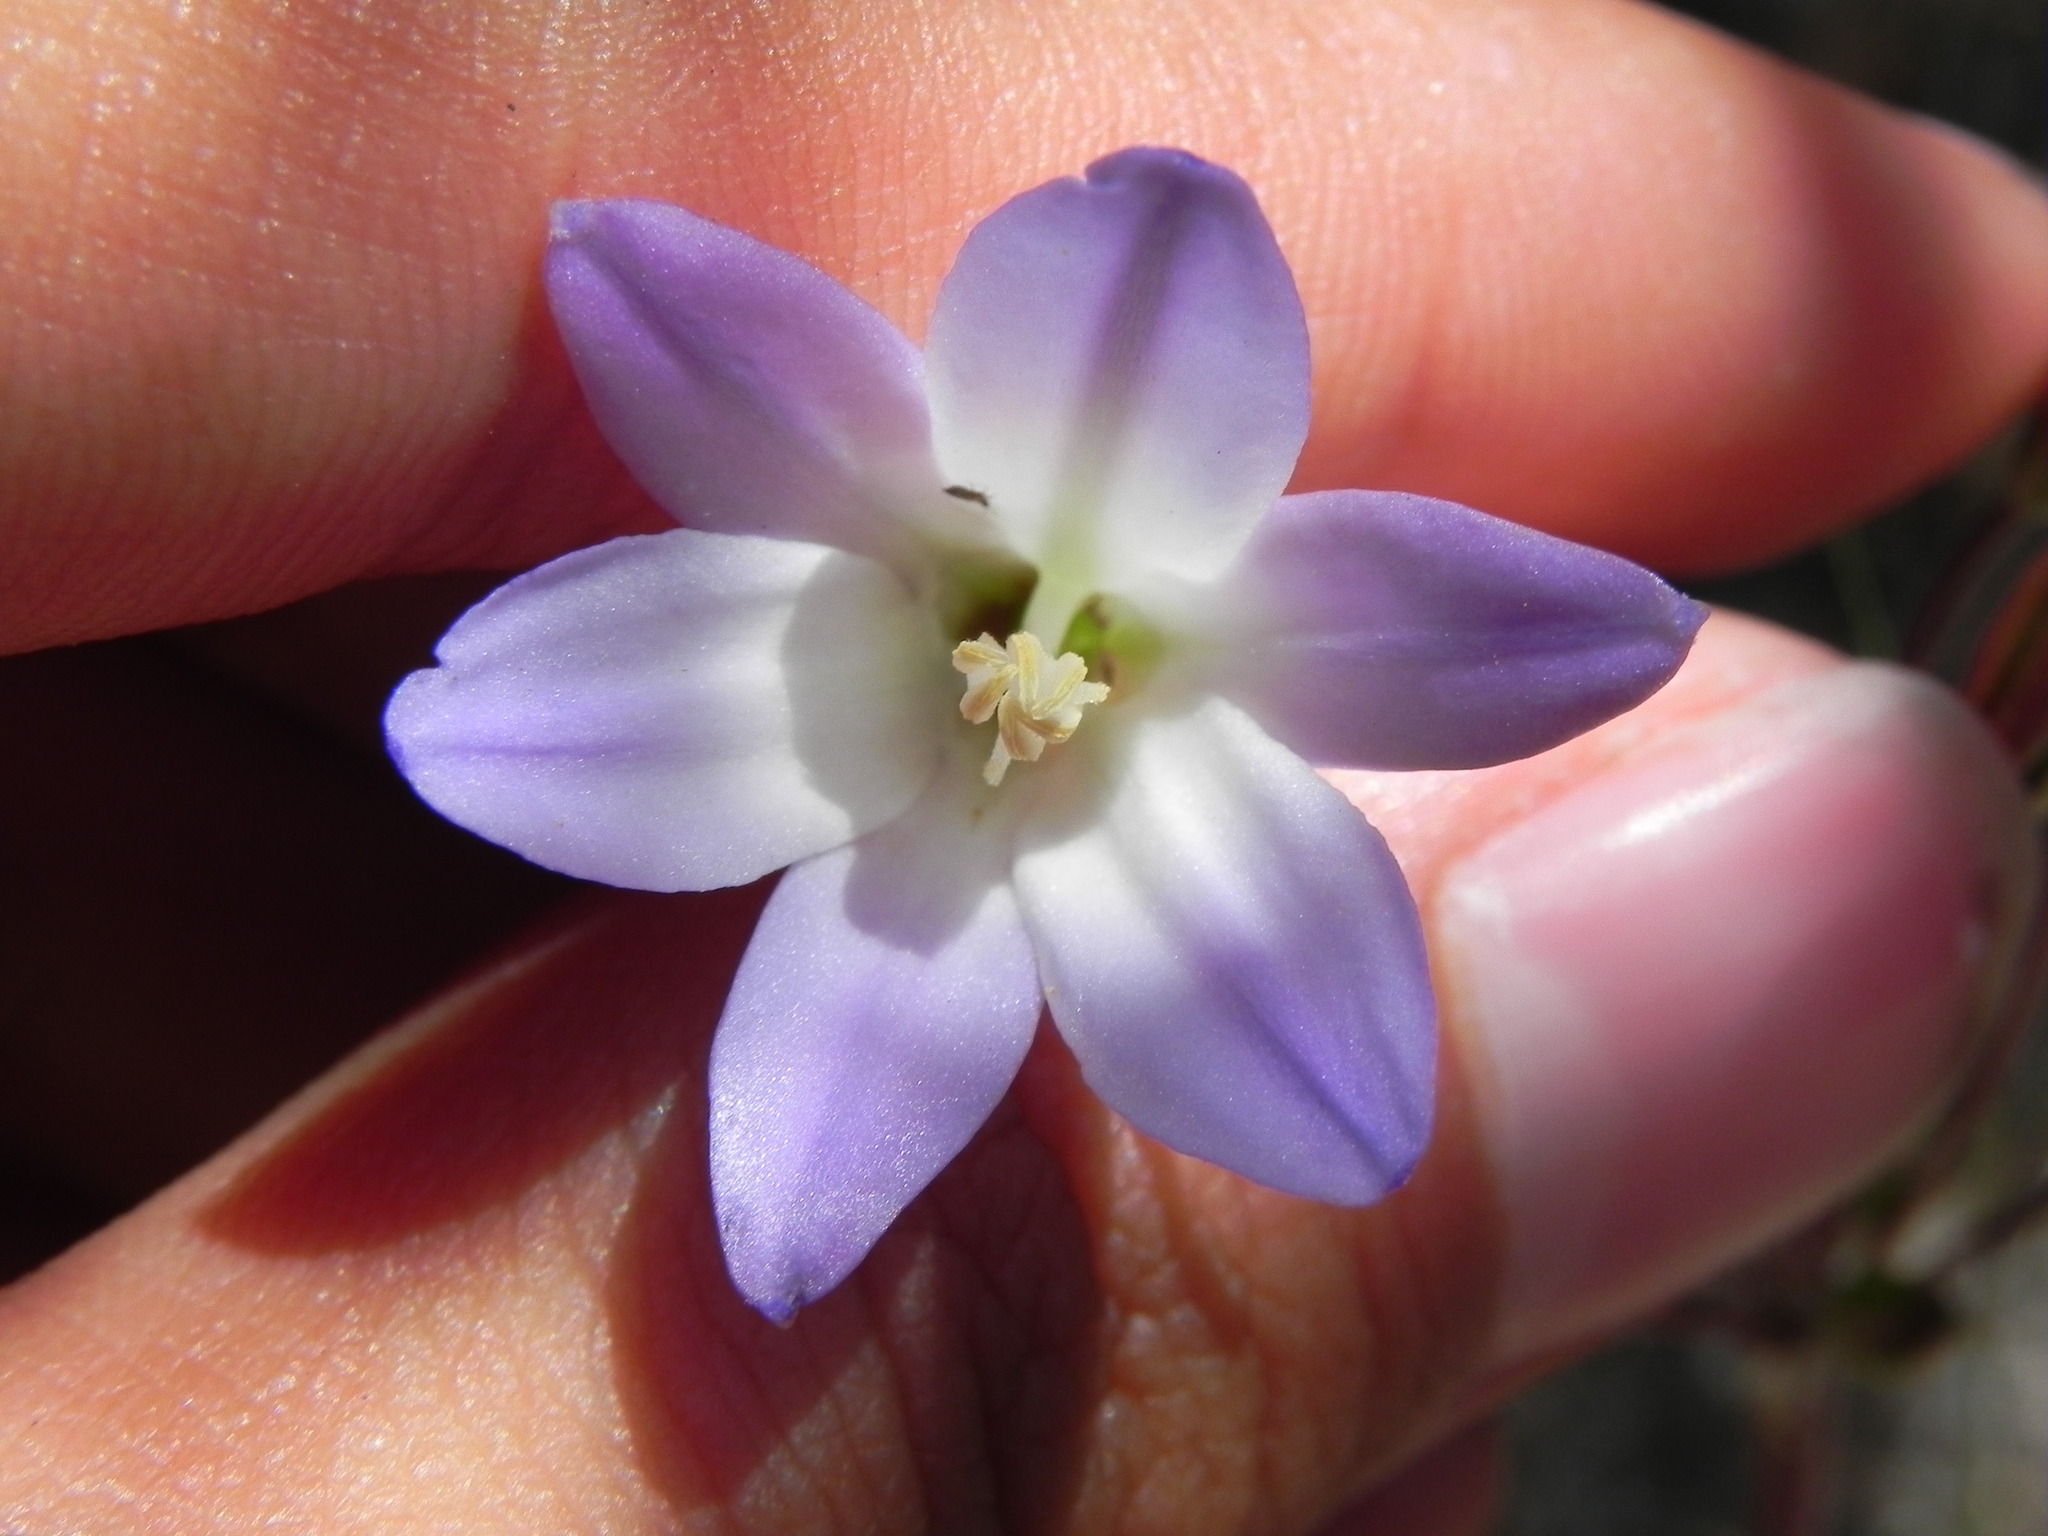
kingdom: Plantae
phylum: Tracheophyta
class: Liliopsida
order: Asparagales
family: Asparagaceae
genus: Brodiaea
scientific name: Brodiaea orcuttii
